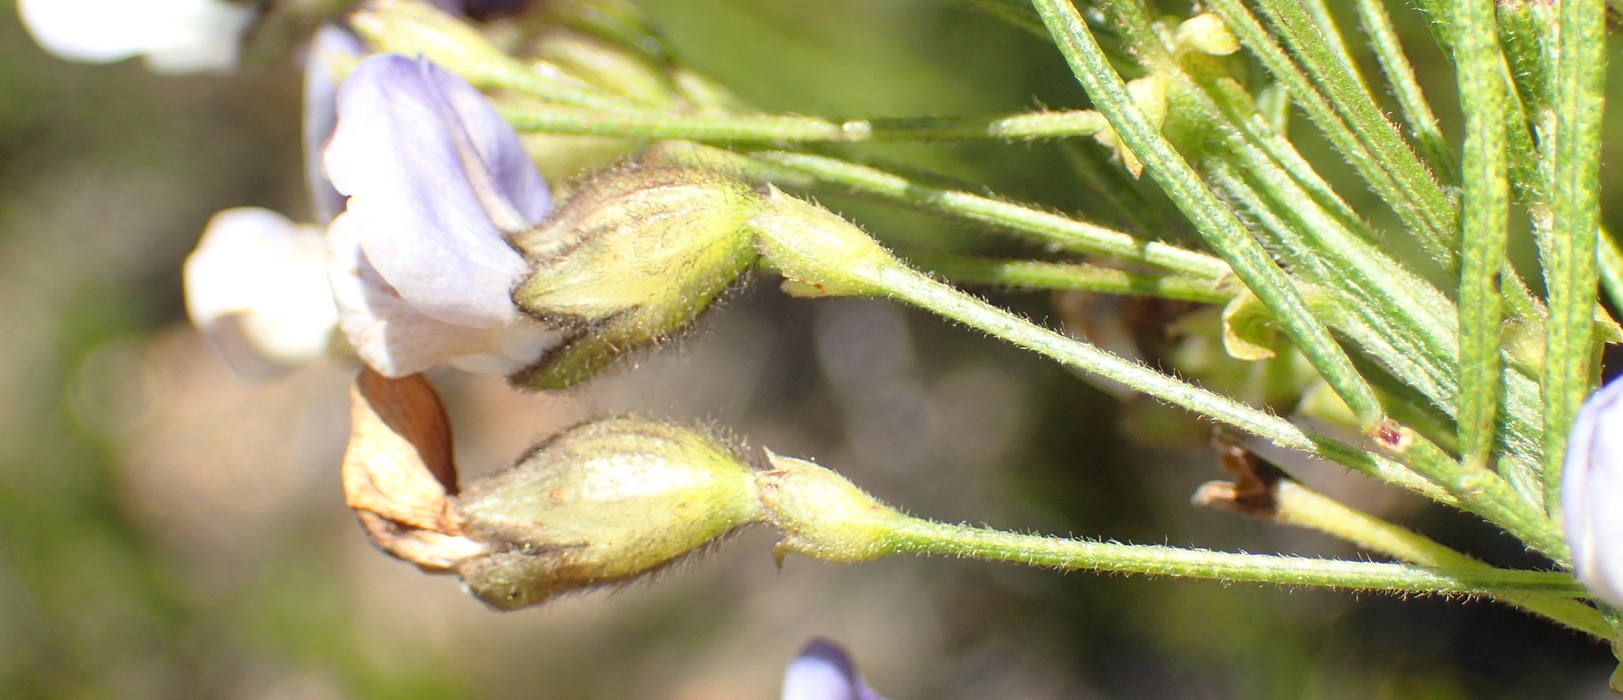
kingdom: Plantae
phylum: Tracheophyta
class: Magnoliopsida
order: Fabales
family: Fabaceae
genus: Psoralea
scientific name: Psoralea arborea
